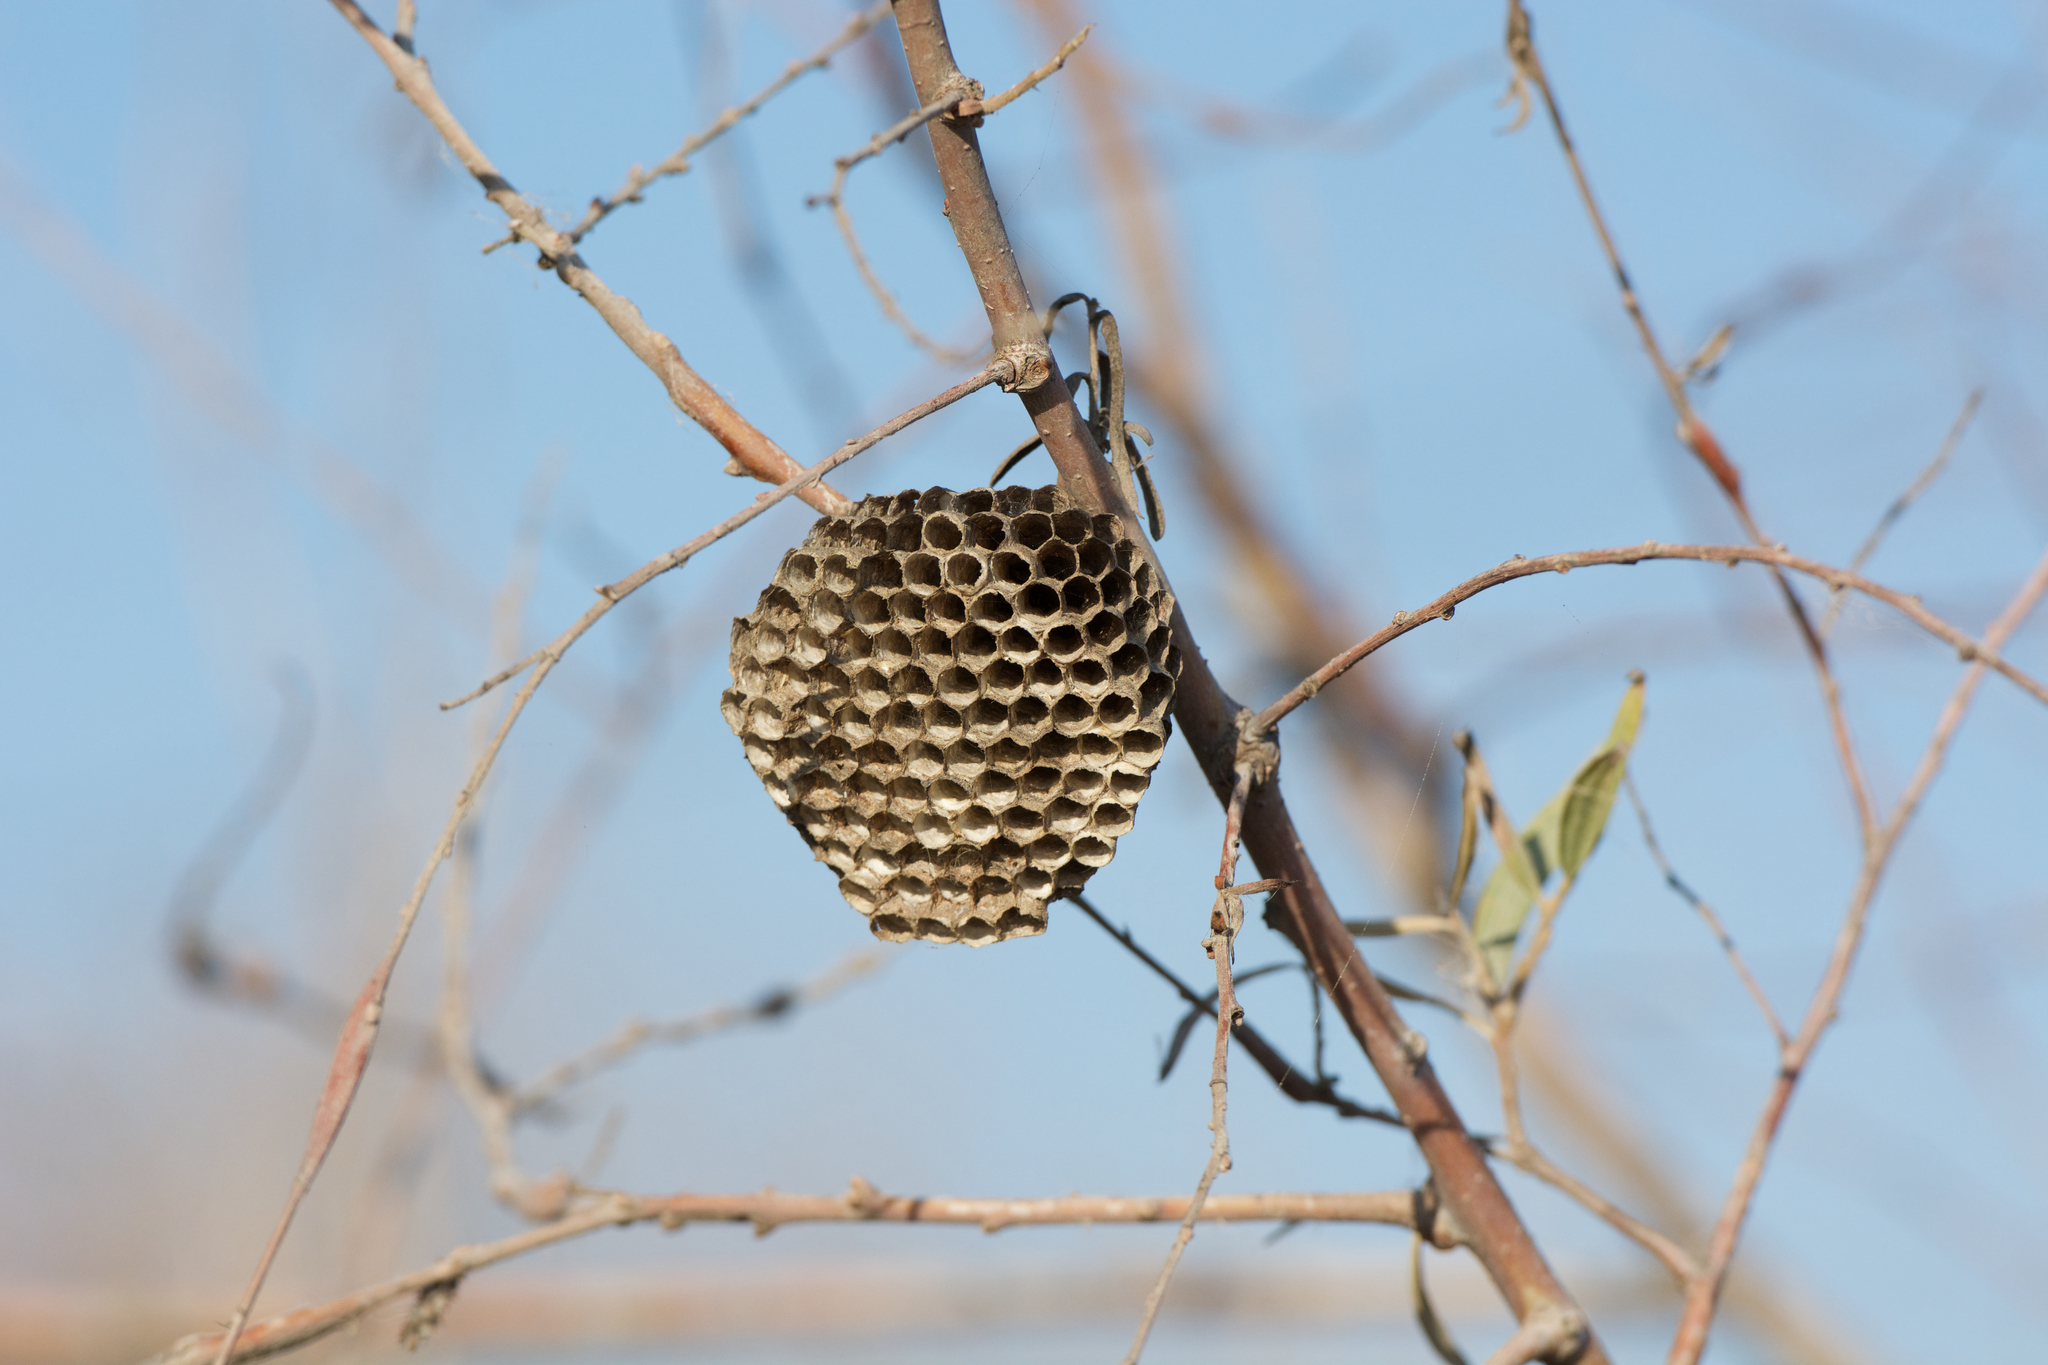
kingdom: Animalia
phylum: Arthropoda
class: Insecta
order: Hymenoptera
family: Vespidae
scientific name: Vespidae
